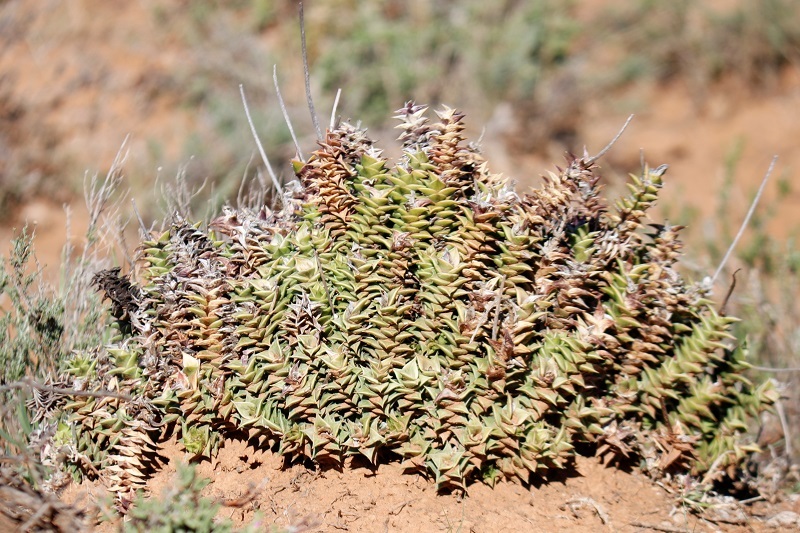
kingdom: Plantae
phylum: Tracheophyta
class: Liliopsida
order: Asparagales
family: Asphodelaceae
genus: Astroloba
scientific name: Astroloba foliolosa
